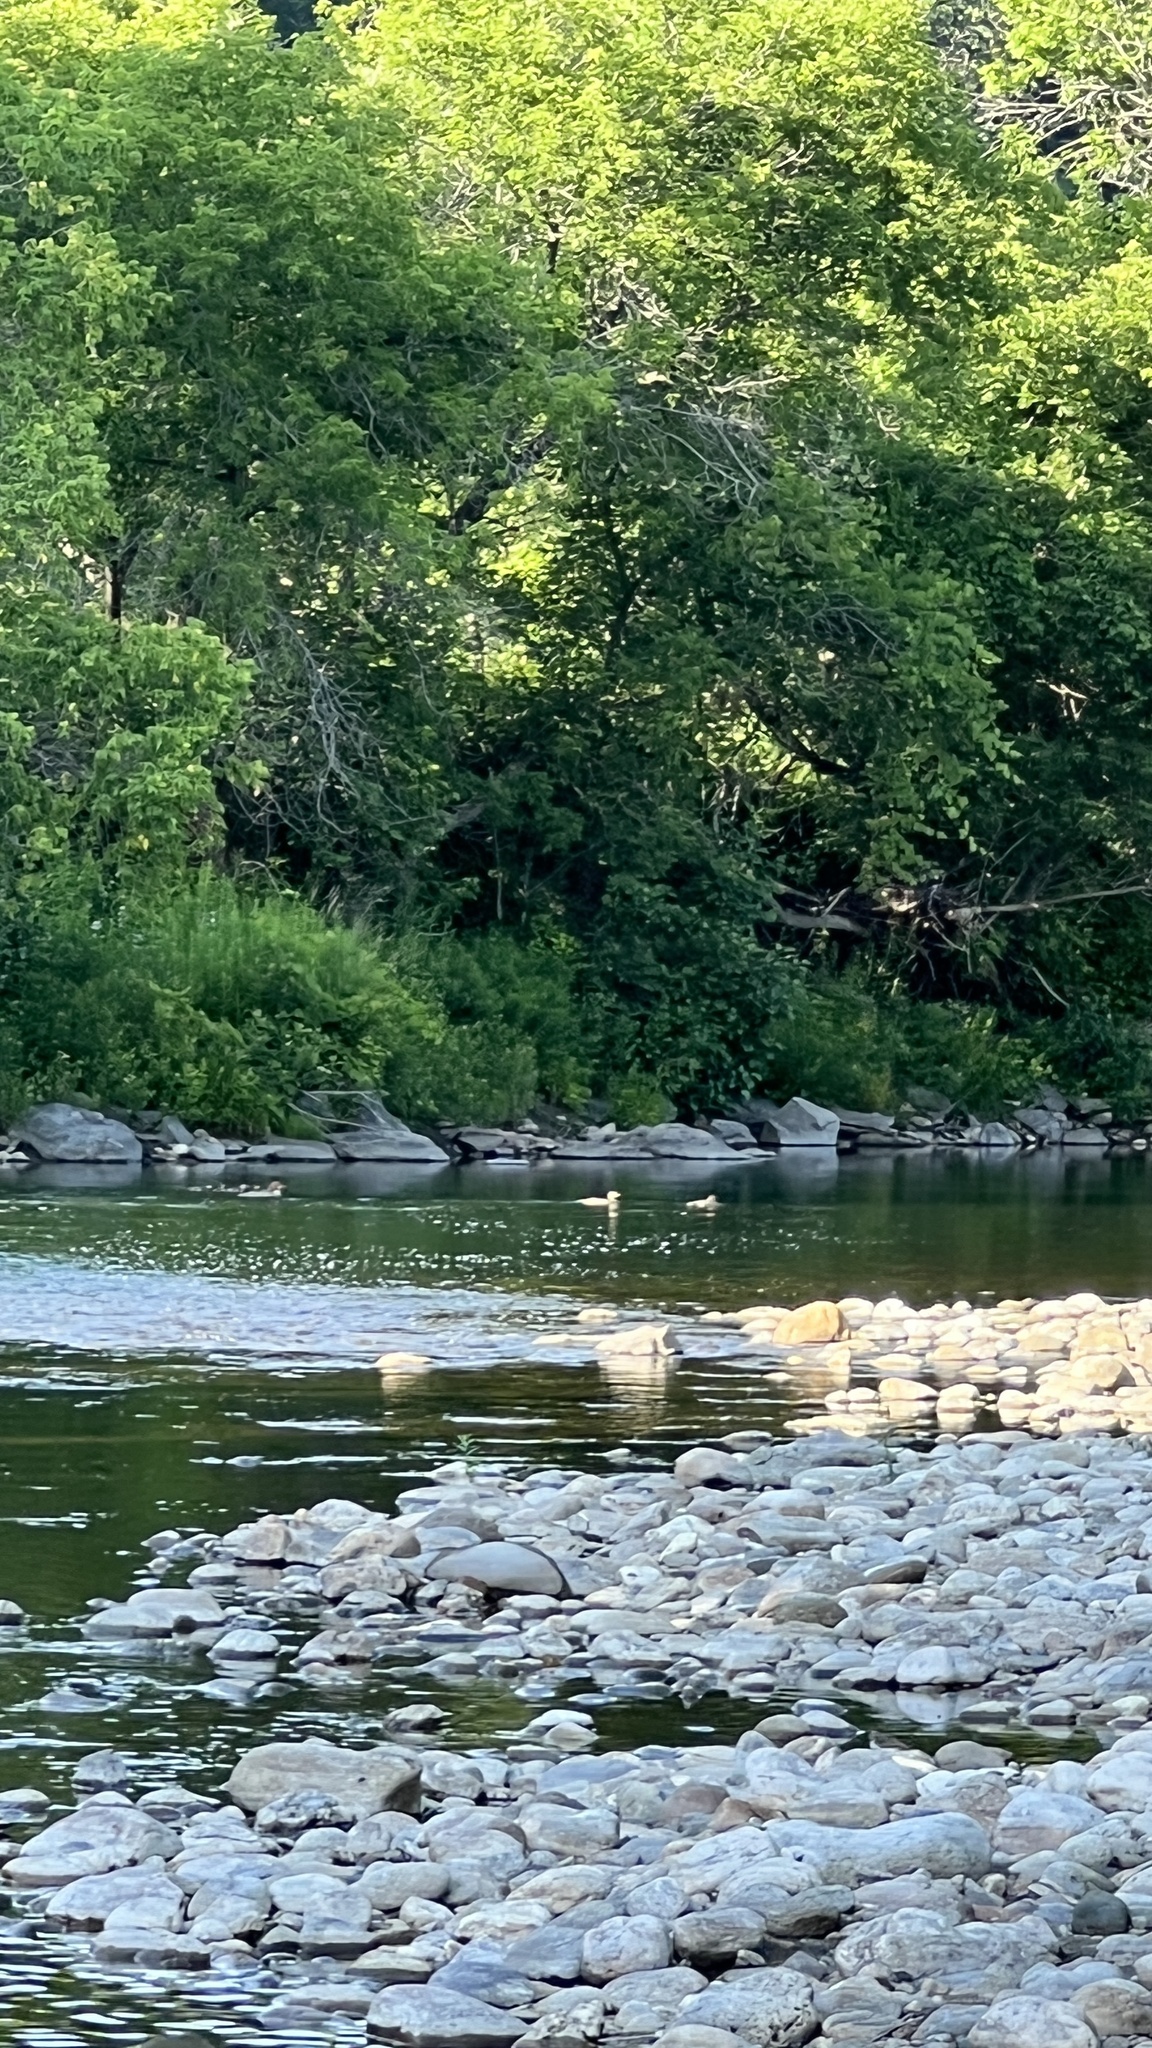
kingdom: Animalia
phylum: Chordata
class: Aves
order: Anseriformes
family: Anatidae
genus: Mergus
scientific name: Mergus merganser
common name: Common merganser
